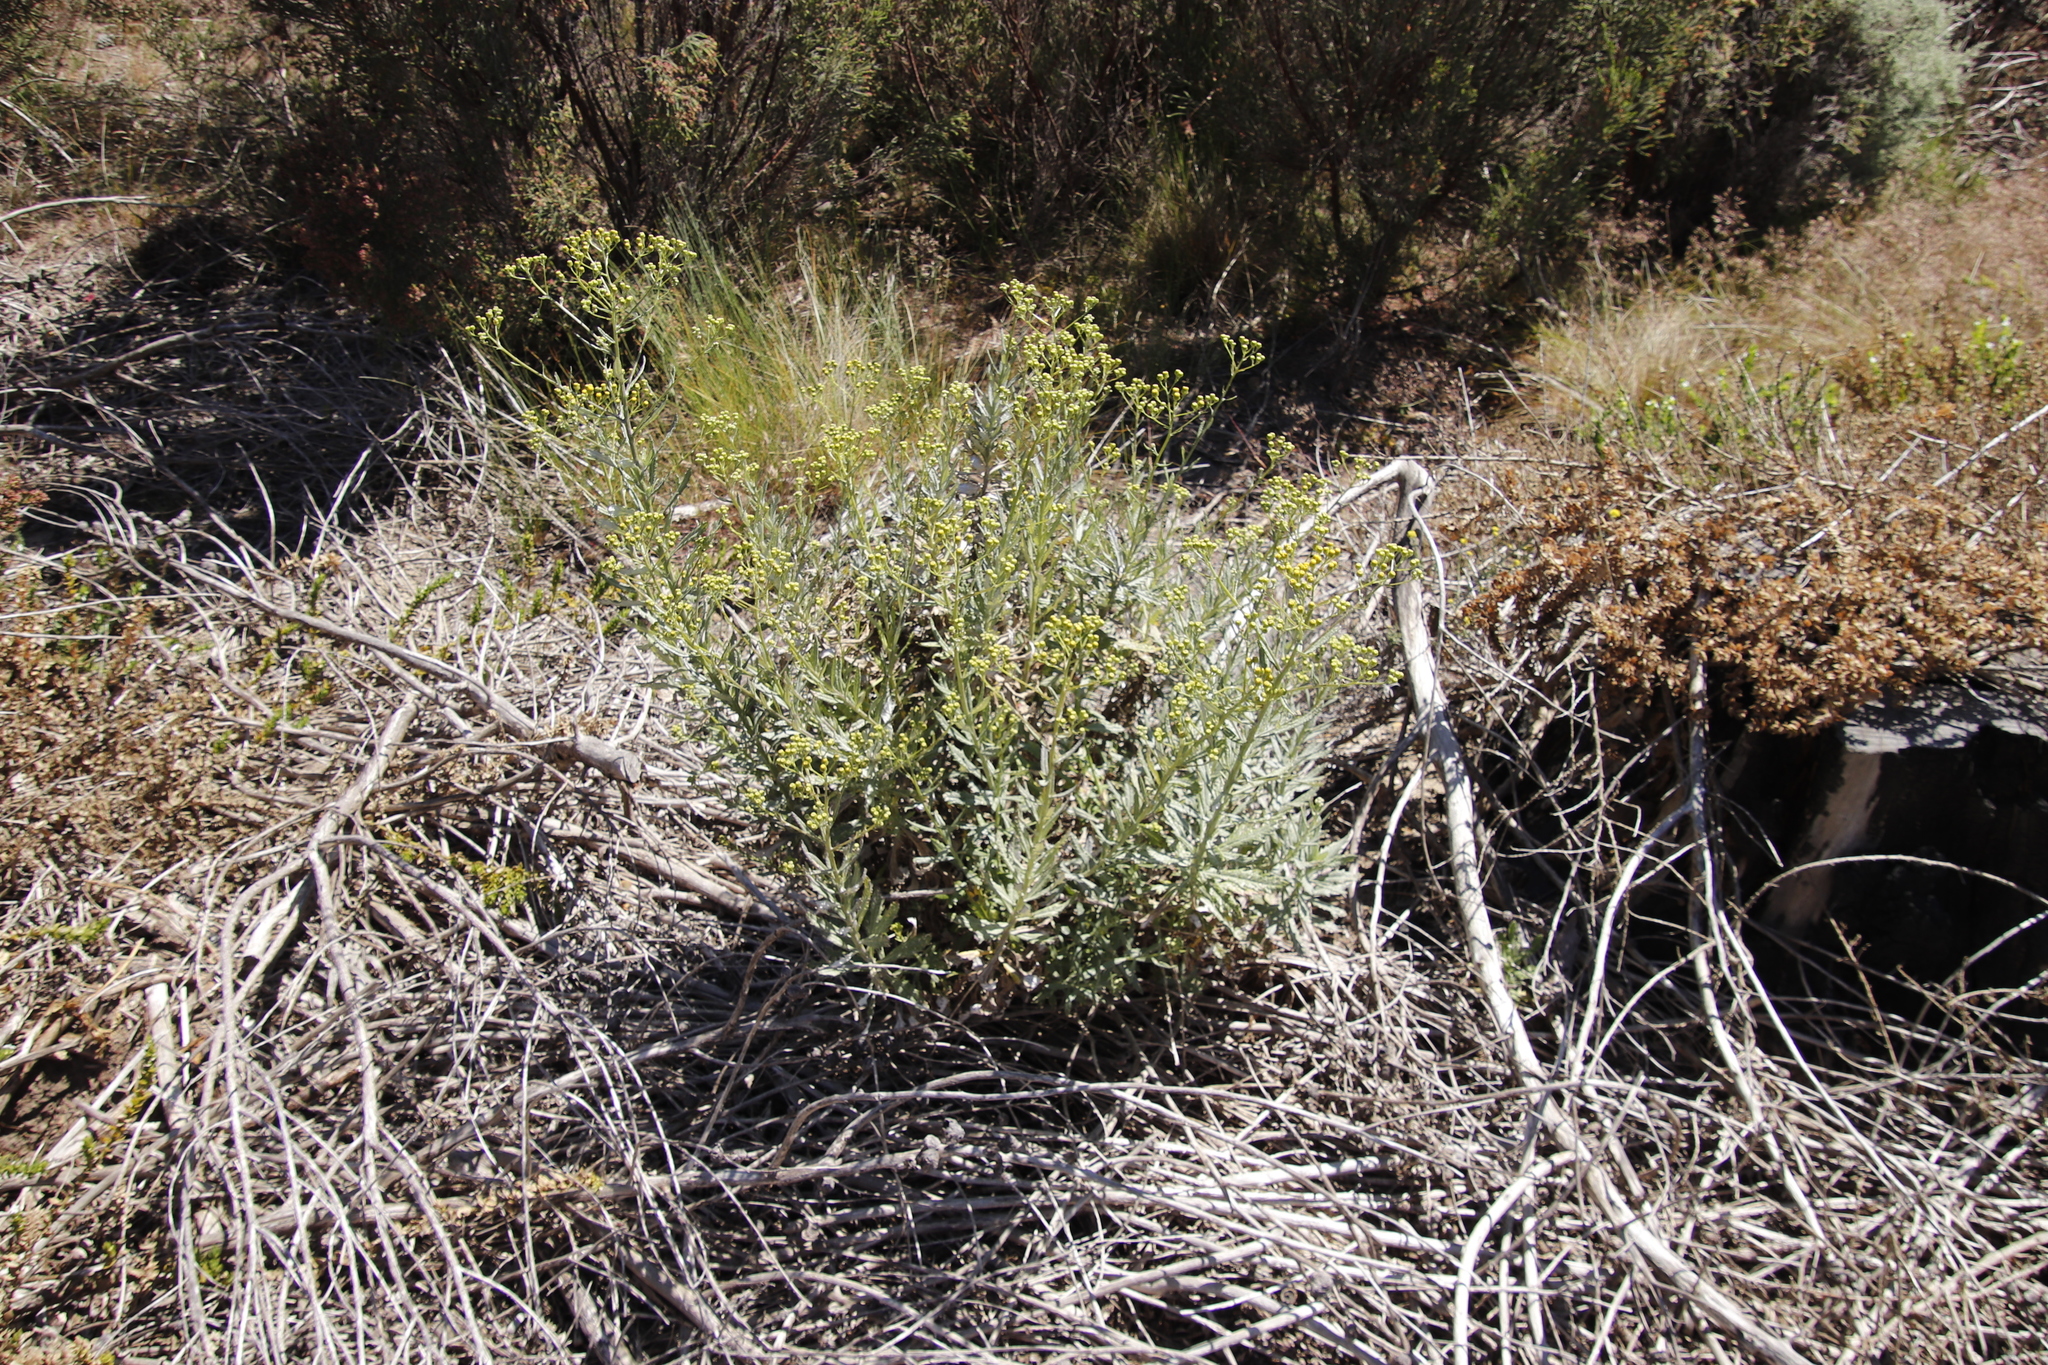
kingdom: Plantae
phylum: Tracheophyta
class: Magnoliopsida
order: Asterales
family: Asteraceae
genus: Senecio
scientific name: Senecio pterophorus
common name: Shoddy ragwort
